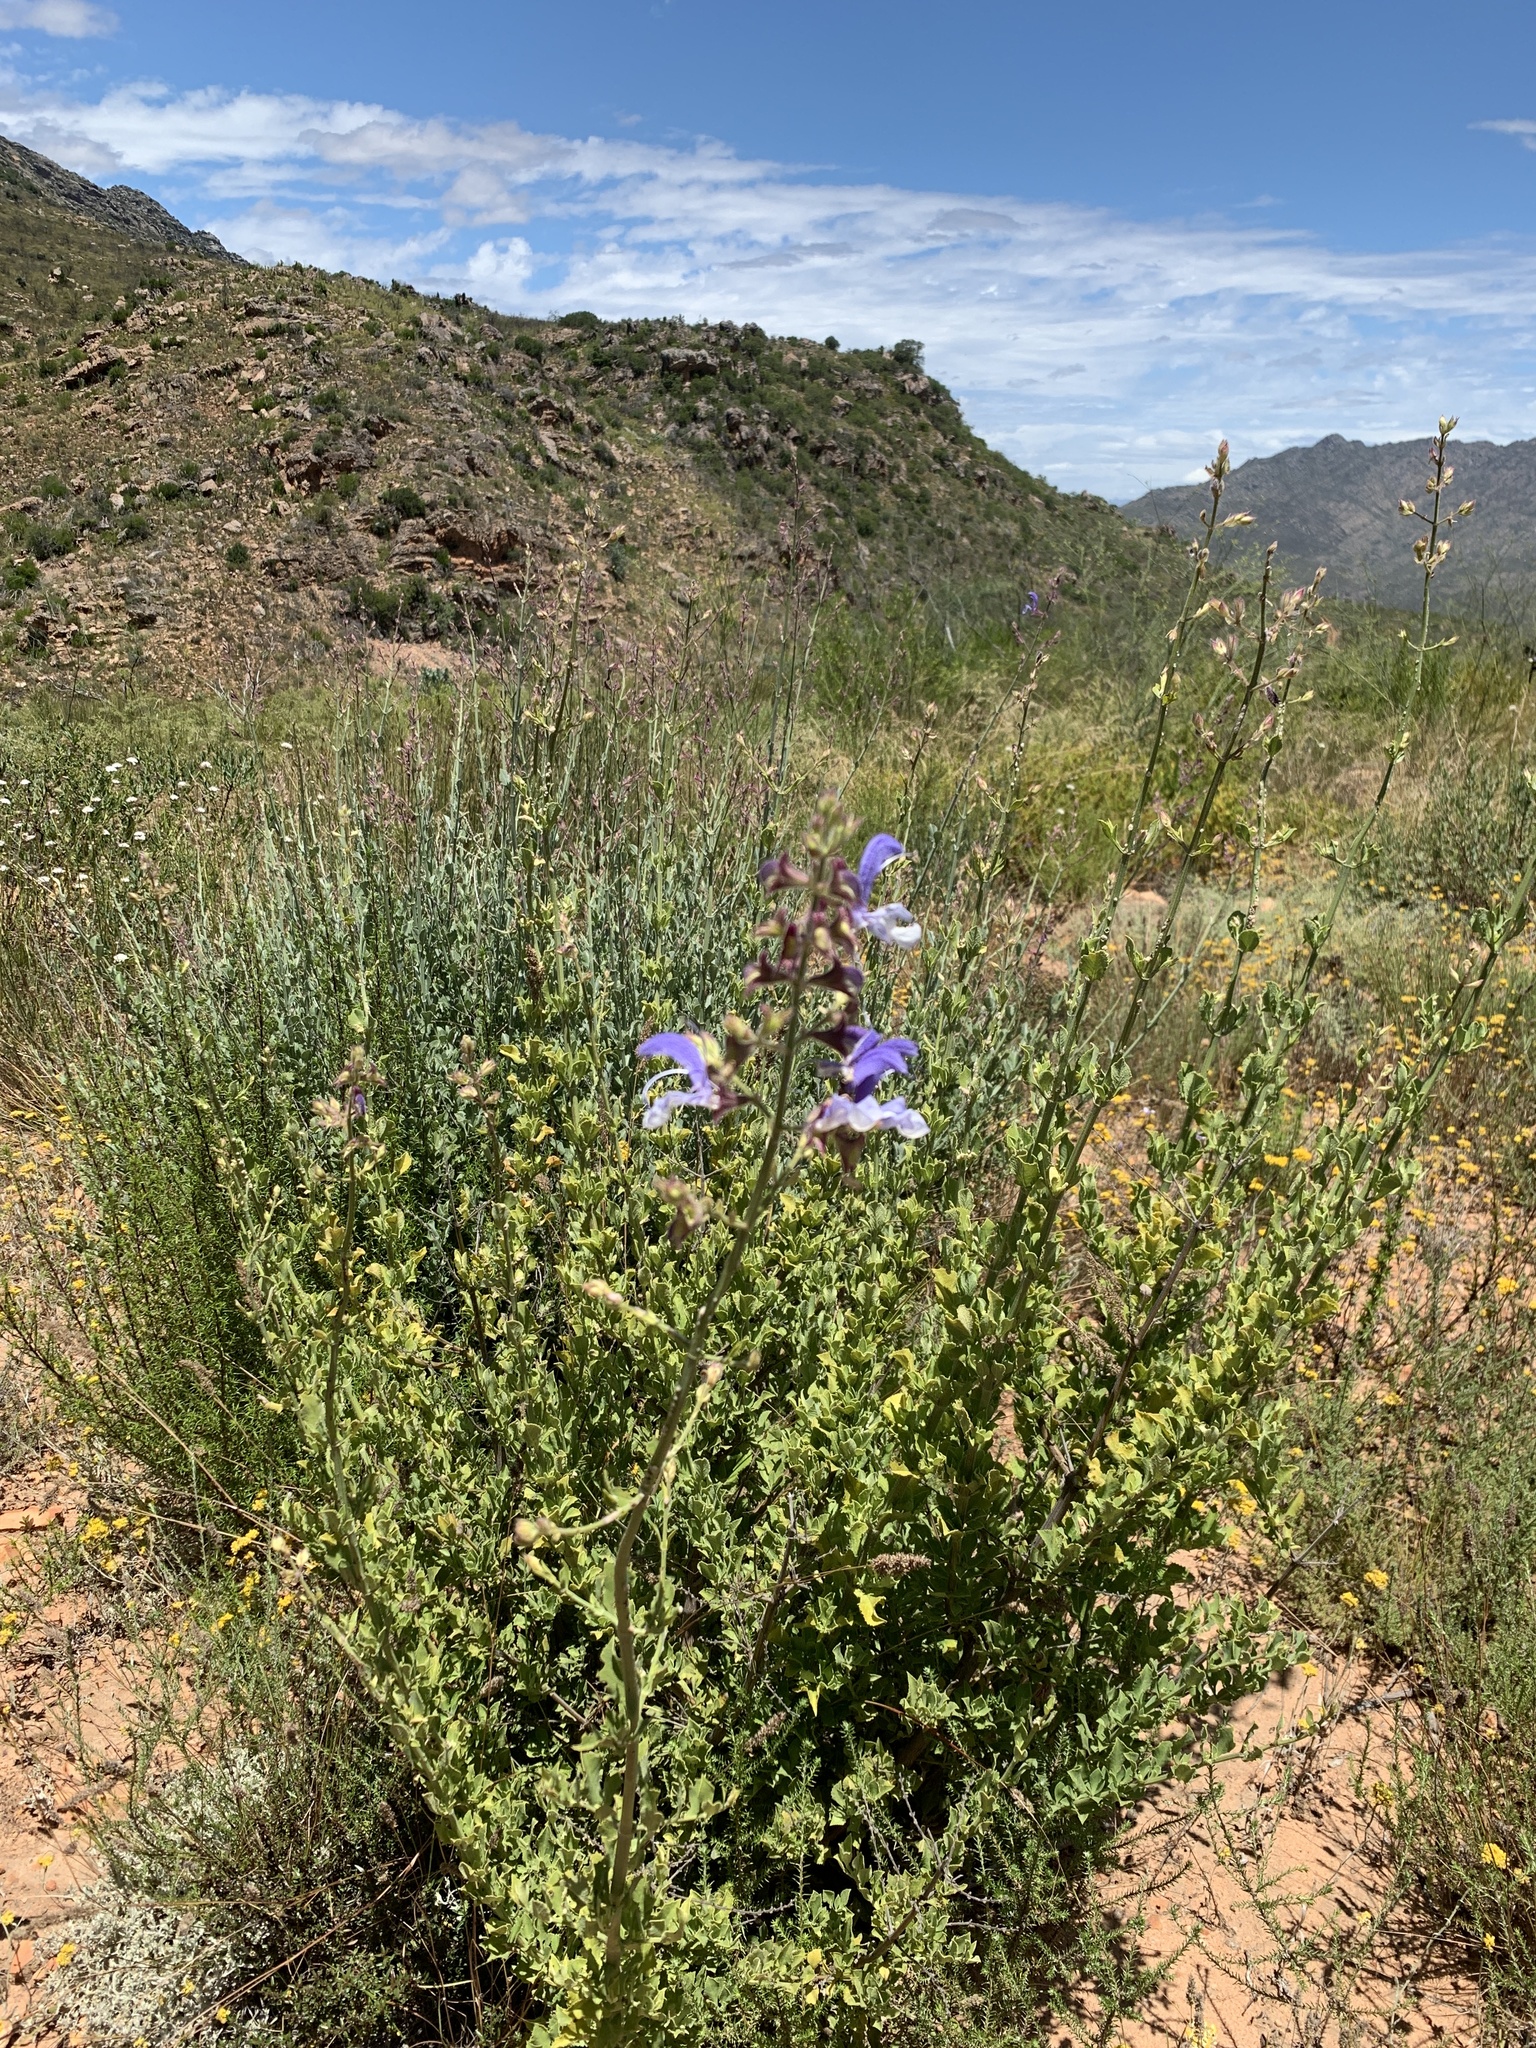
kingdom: Plantae
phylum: Tracheophyta
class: Magnoliopsida
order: Lamiales
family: Lamiaceae
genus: Salvia
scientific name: Salvia chamelaeagnea
